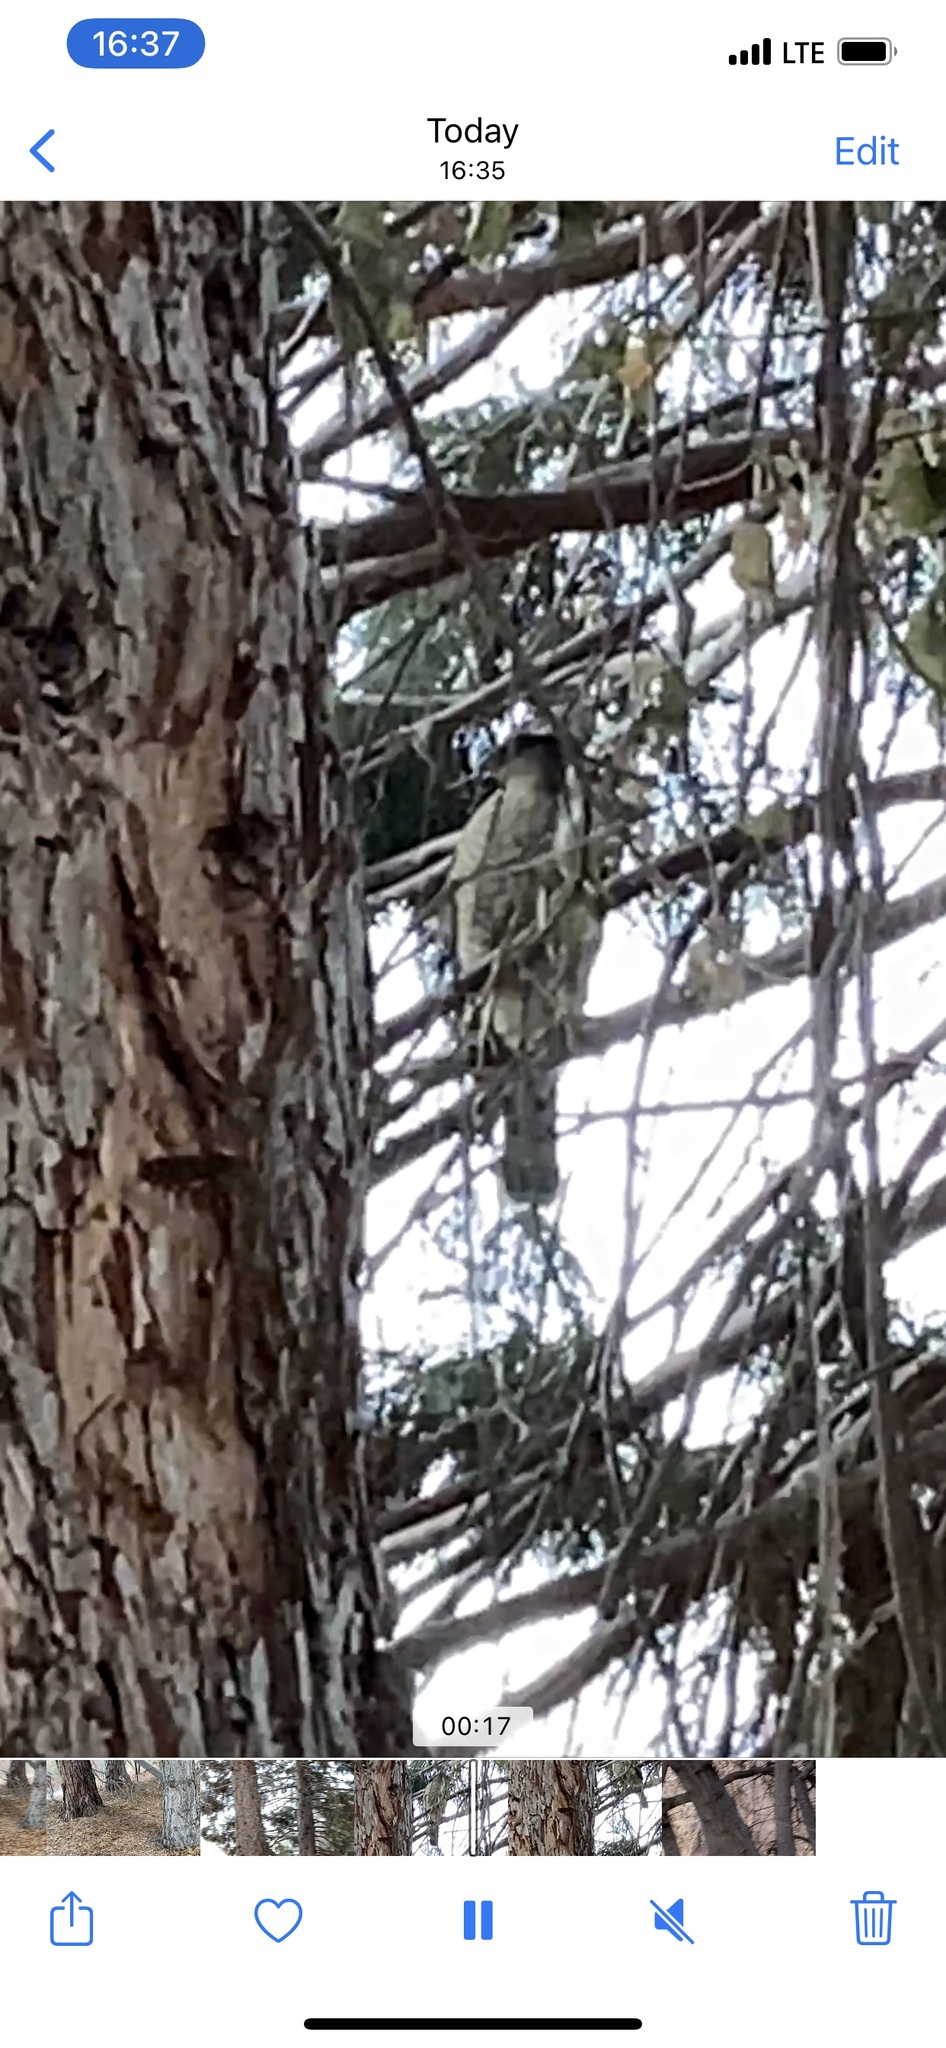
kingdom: Animalia
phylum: Chordata
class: Aves
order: Accipitriformes
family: Accipitridae
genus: Accipiter
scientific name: Accipiter cooperii
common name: Cooper's hawk
